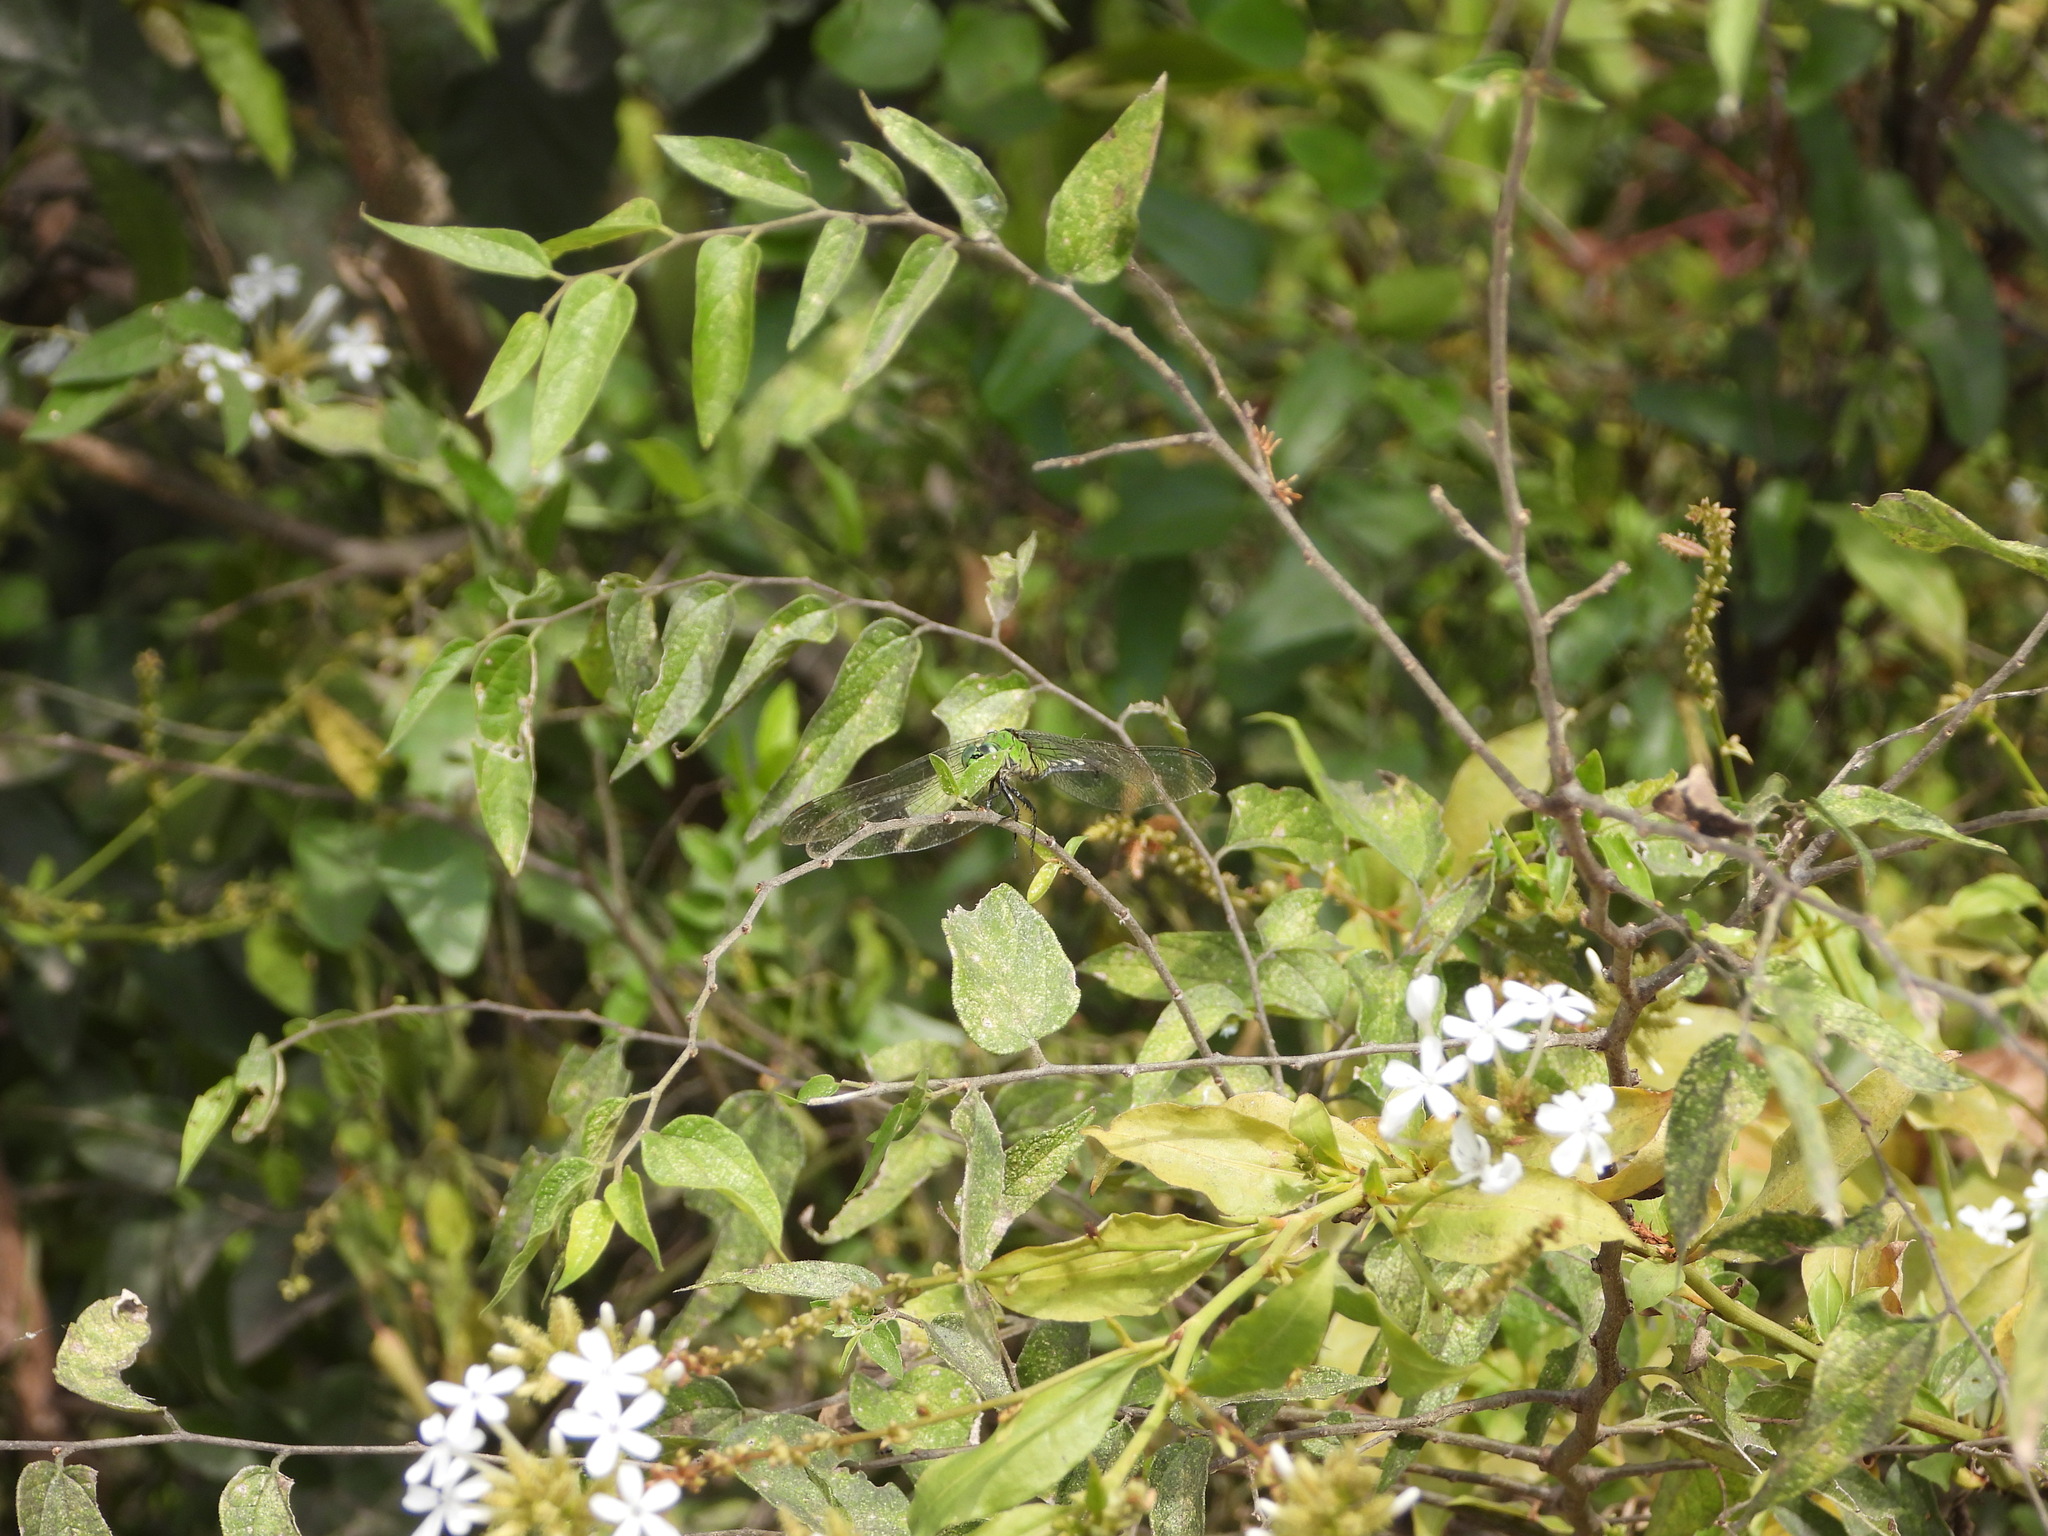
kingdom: Animalia
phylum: Arthropoda
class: Insecta
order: Odonata
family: Libellulidae
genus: Erythemis
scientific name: Erythemis simplicicollis
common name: Eastern pondhawk
